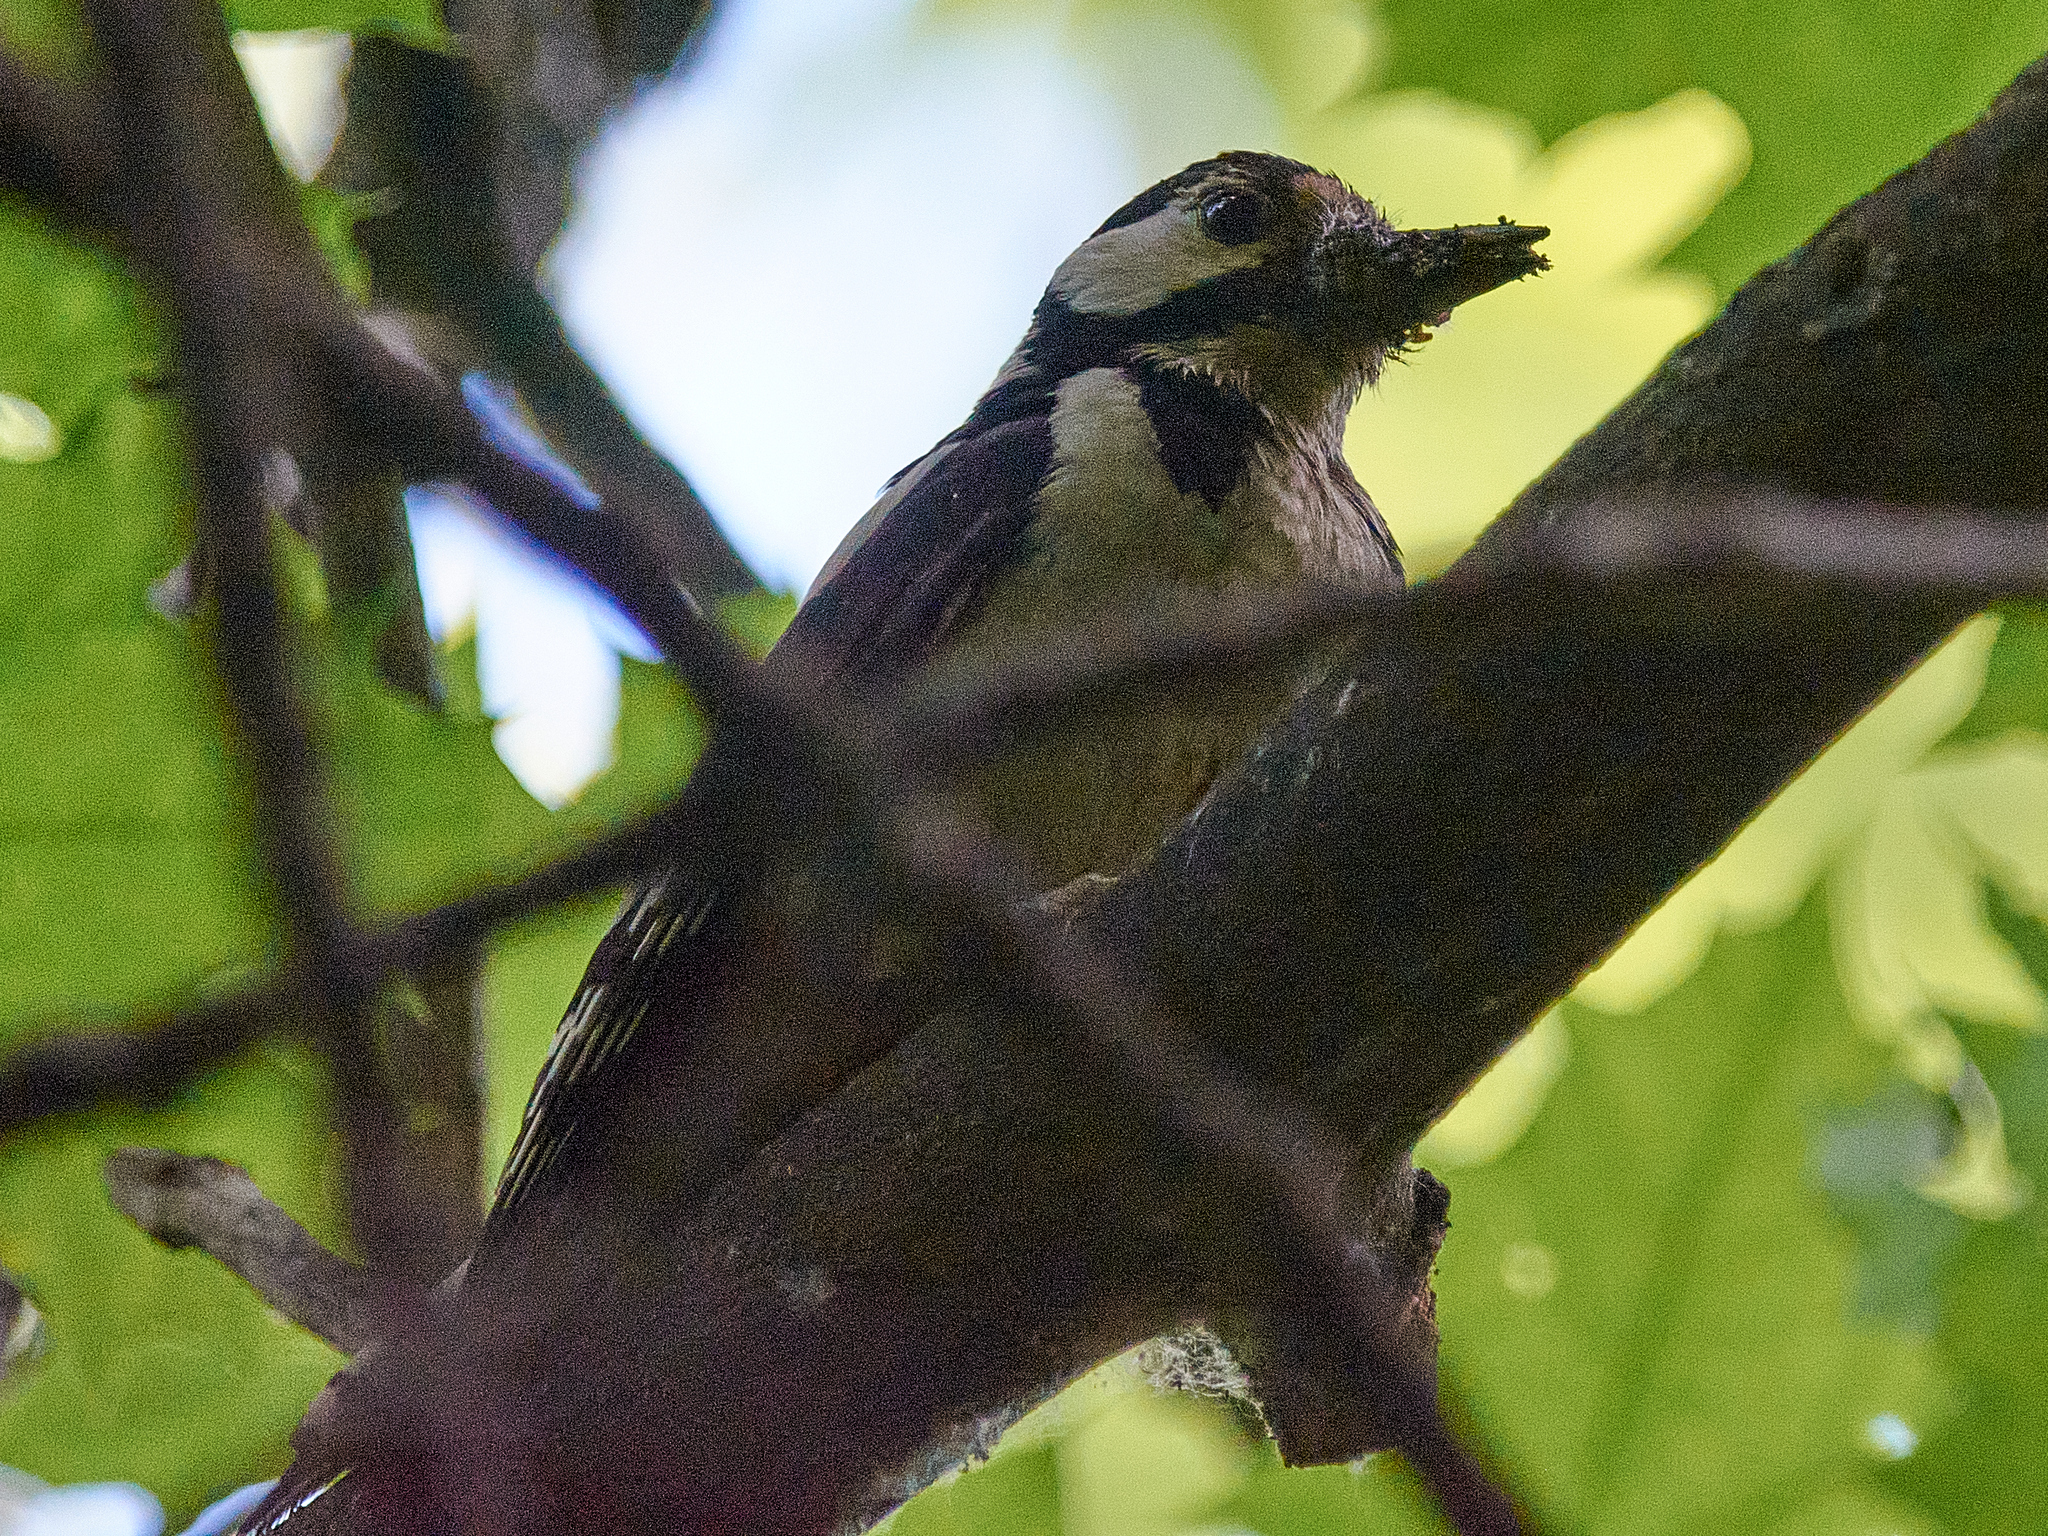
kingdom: Animalia
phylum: Chordata
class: Aves
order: Piciformes
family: Picidae
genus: Dendrocopos
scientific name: Dendrocopos major
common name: Great spotted woodpecker
